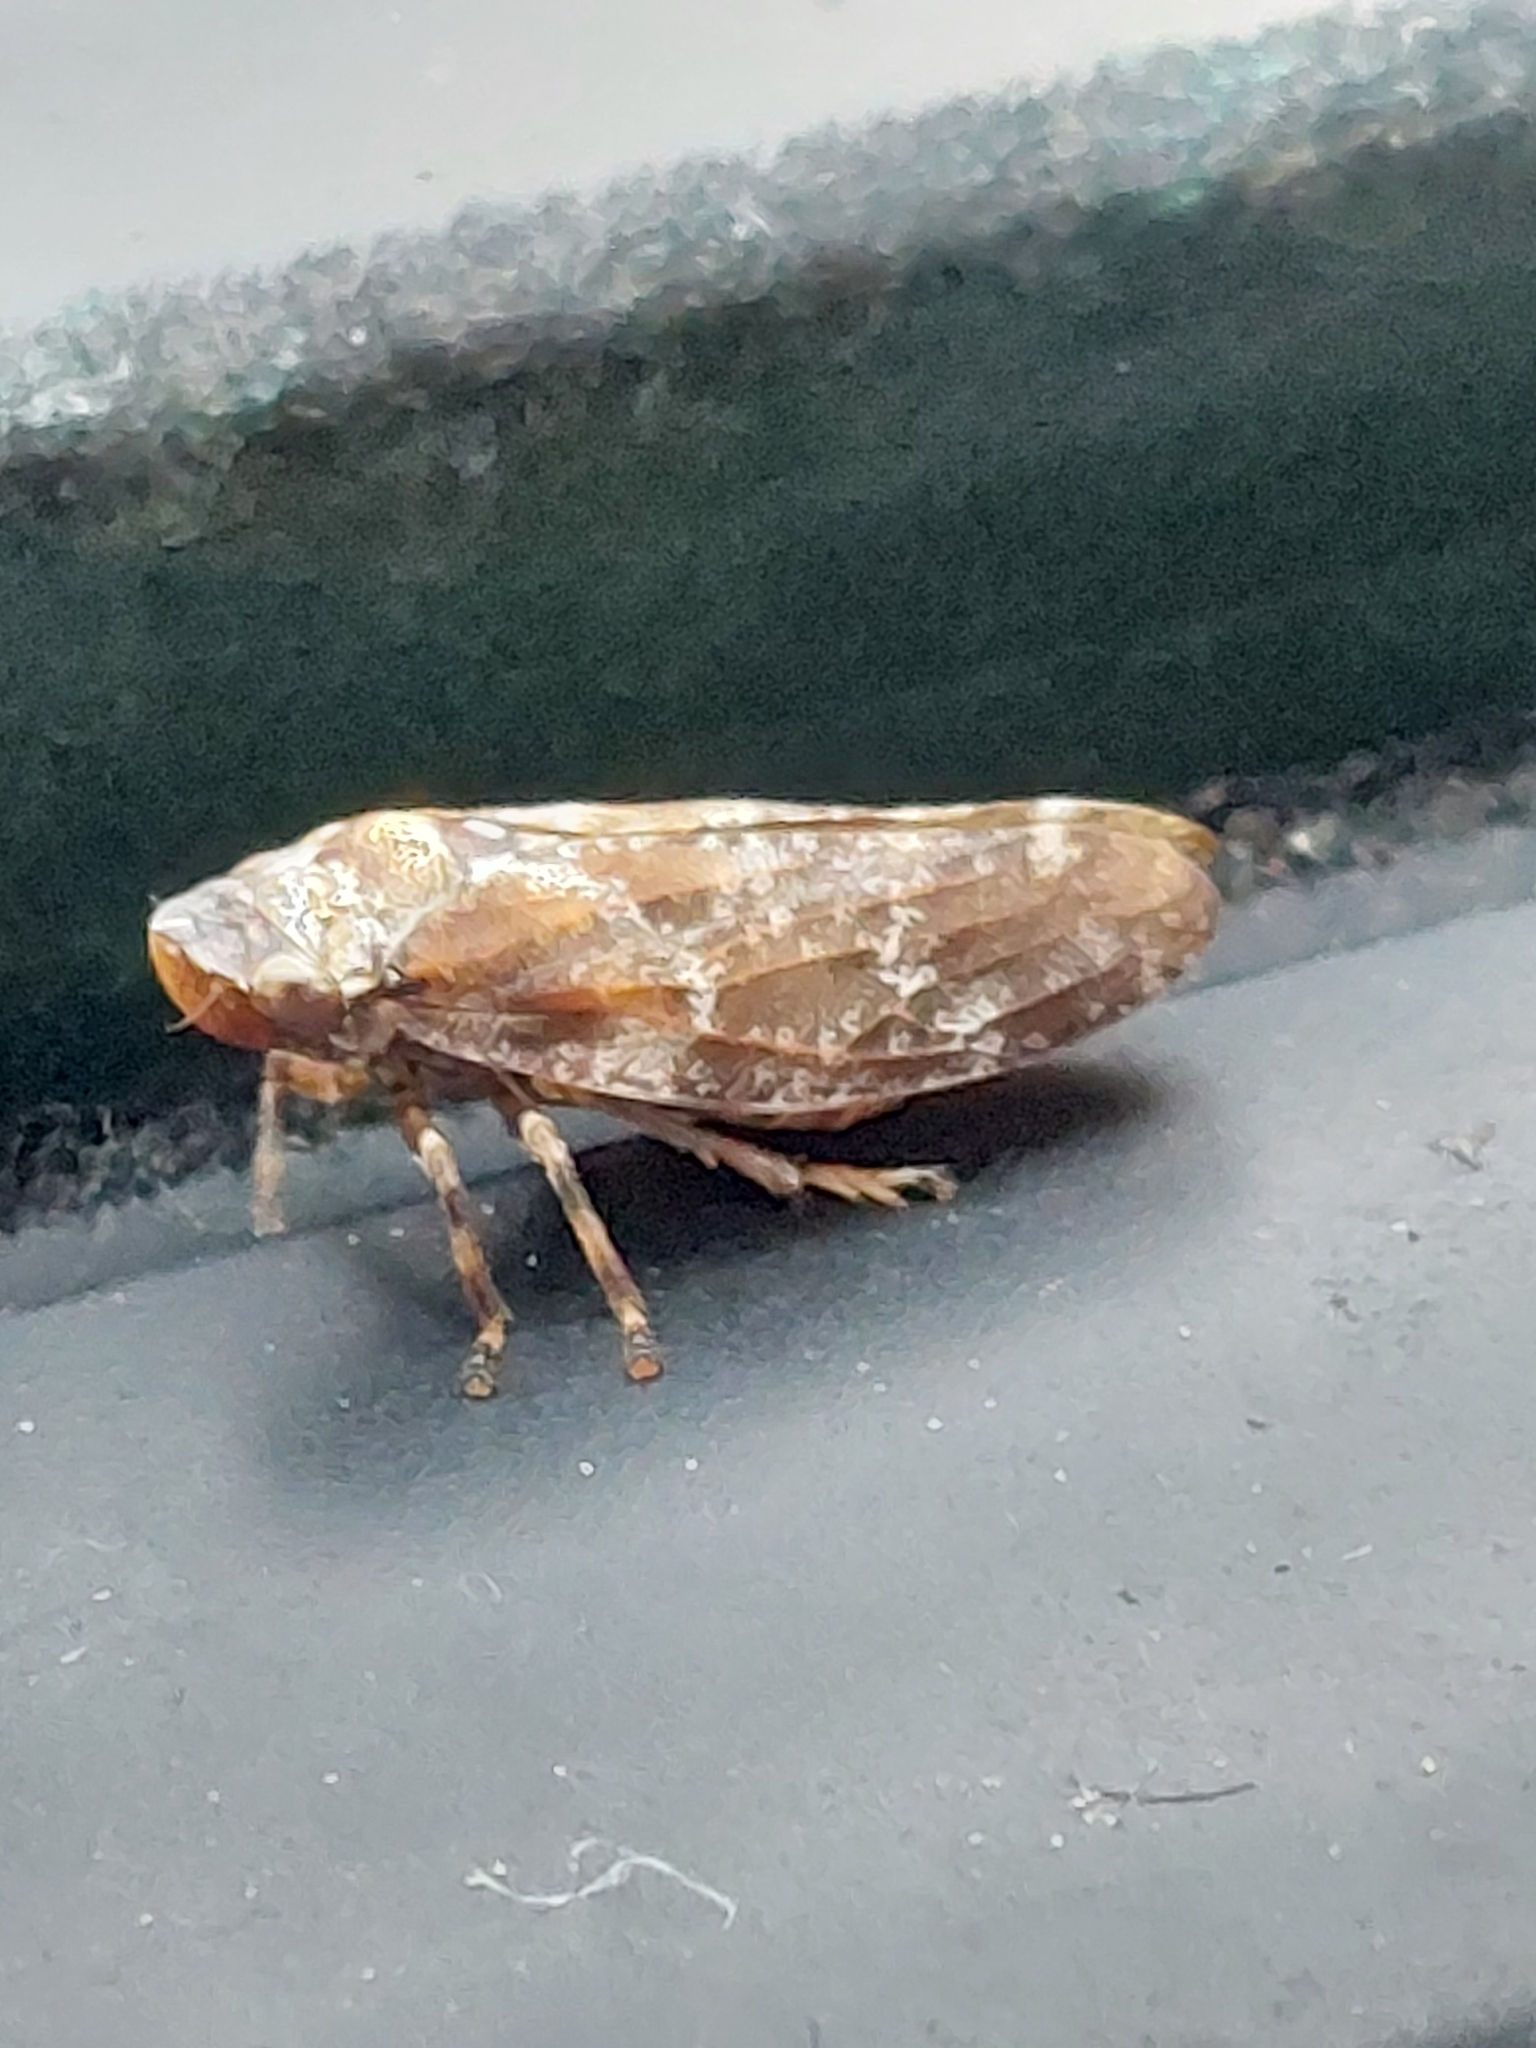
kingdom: Animalia
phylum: Arthropoda
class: Insecta
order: Hemiptera
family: Aphrophoridae
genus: Aphrophora
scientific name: Aphrophora corticea
